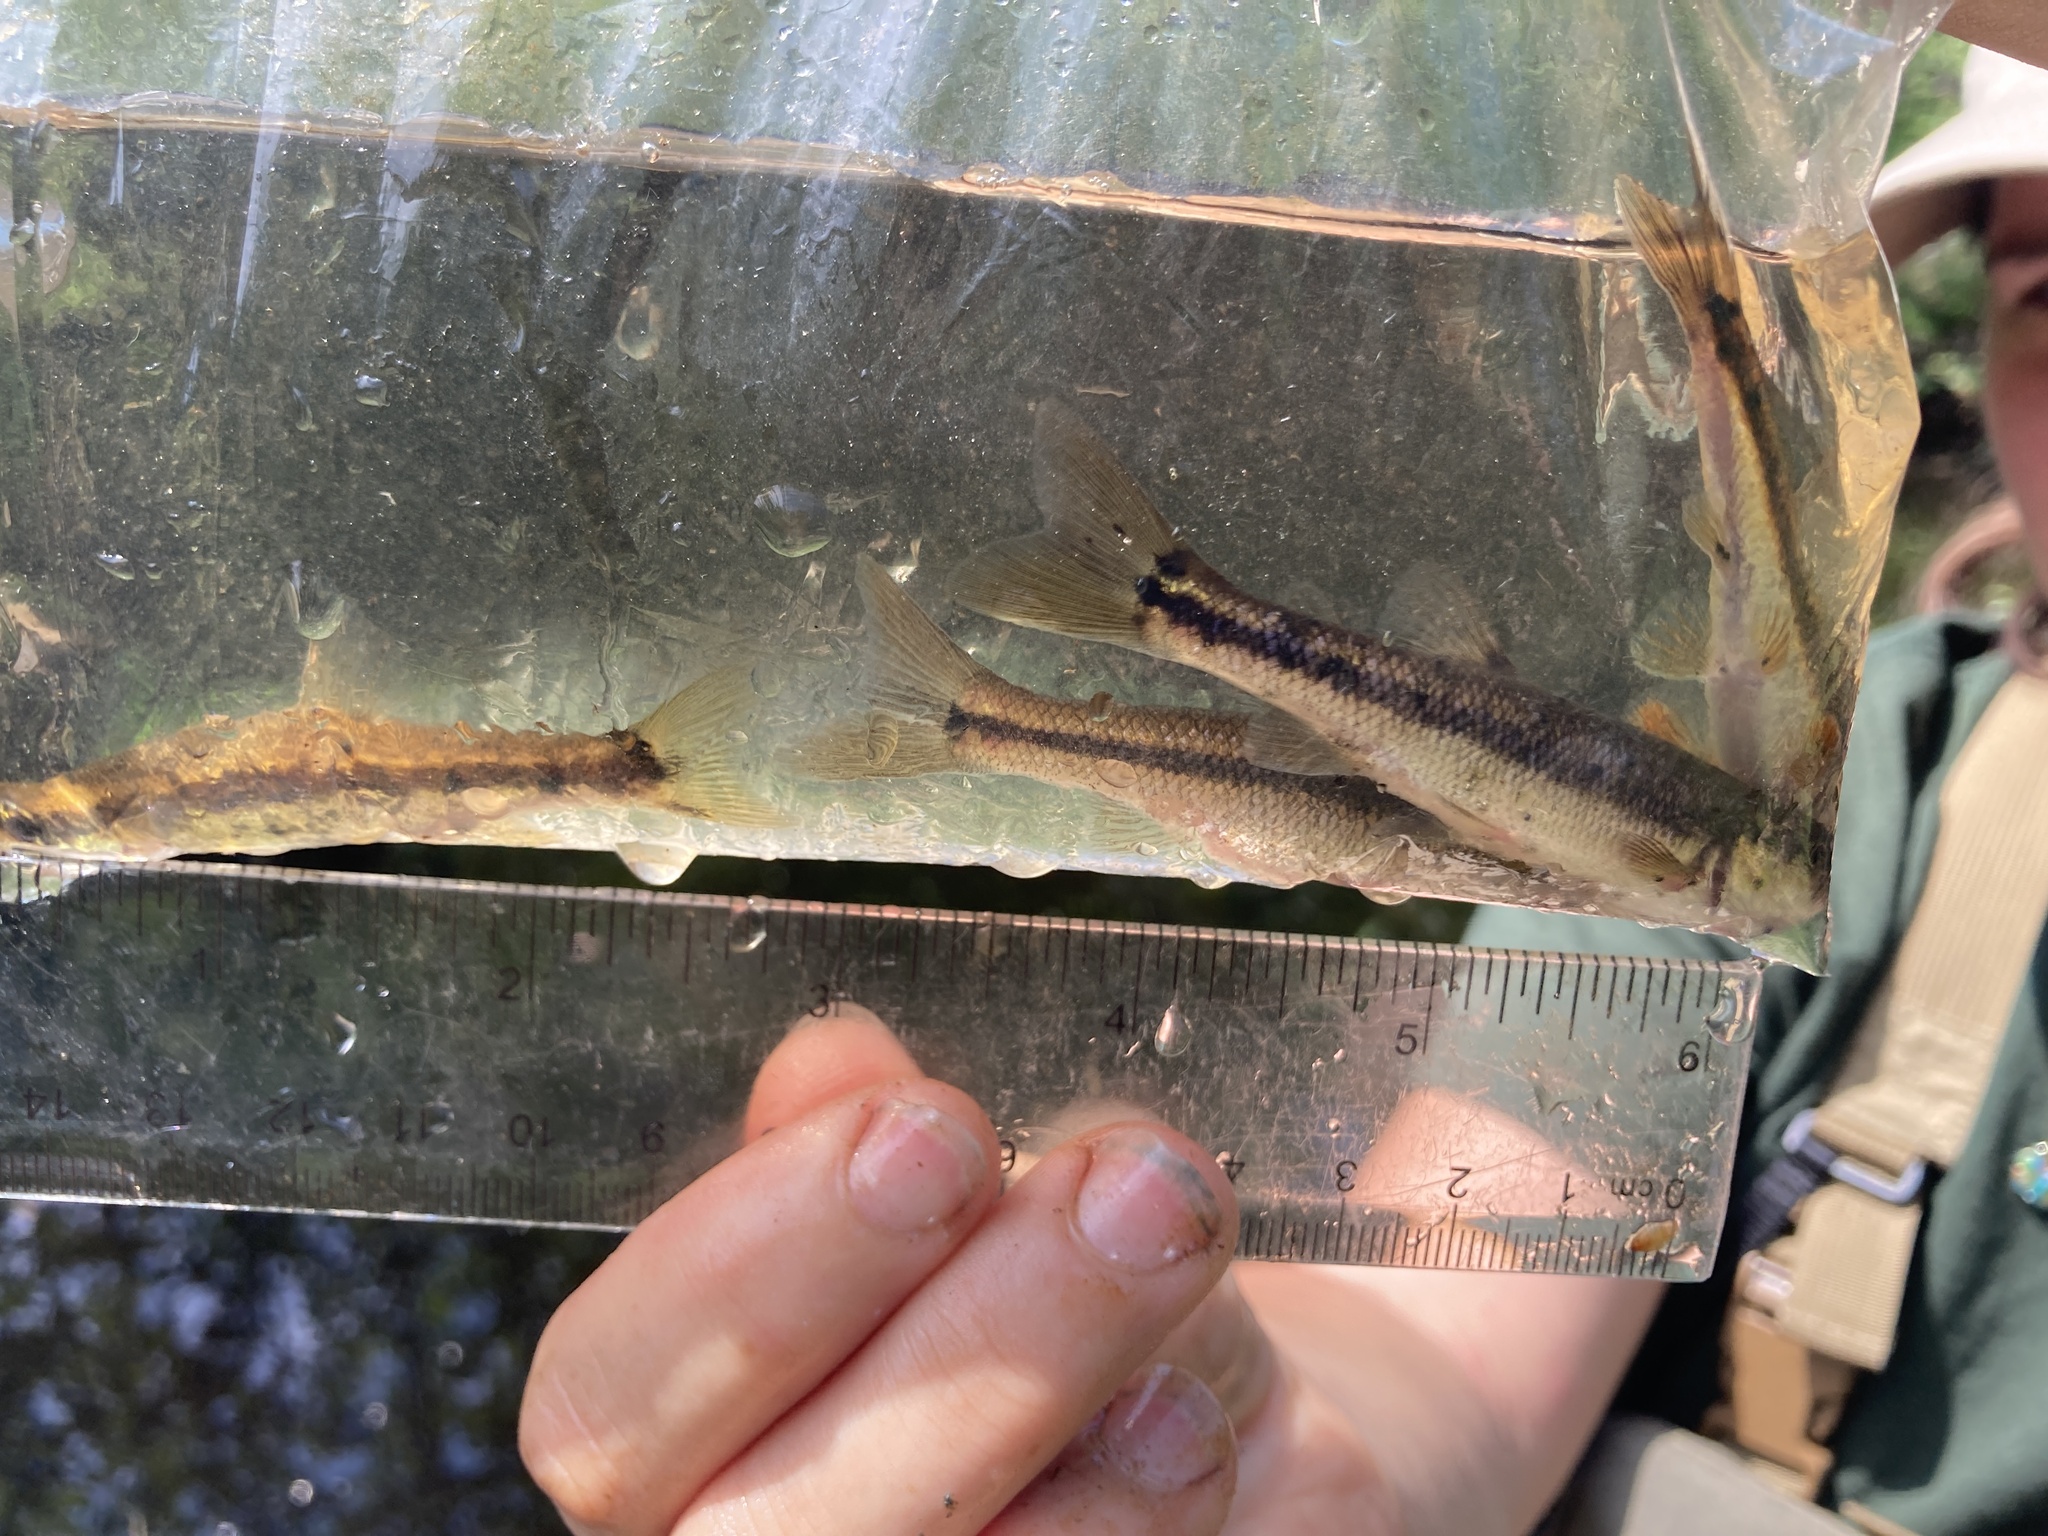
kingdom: Animalia
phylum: Chordata
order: Cypriniformes
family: Cyprinidae
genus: Semotilus
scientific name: Semotilus atromaculatus
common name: Creek chub
